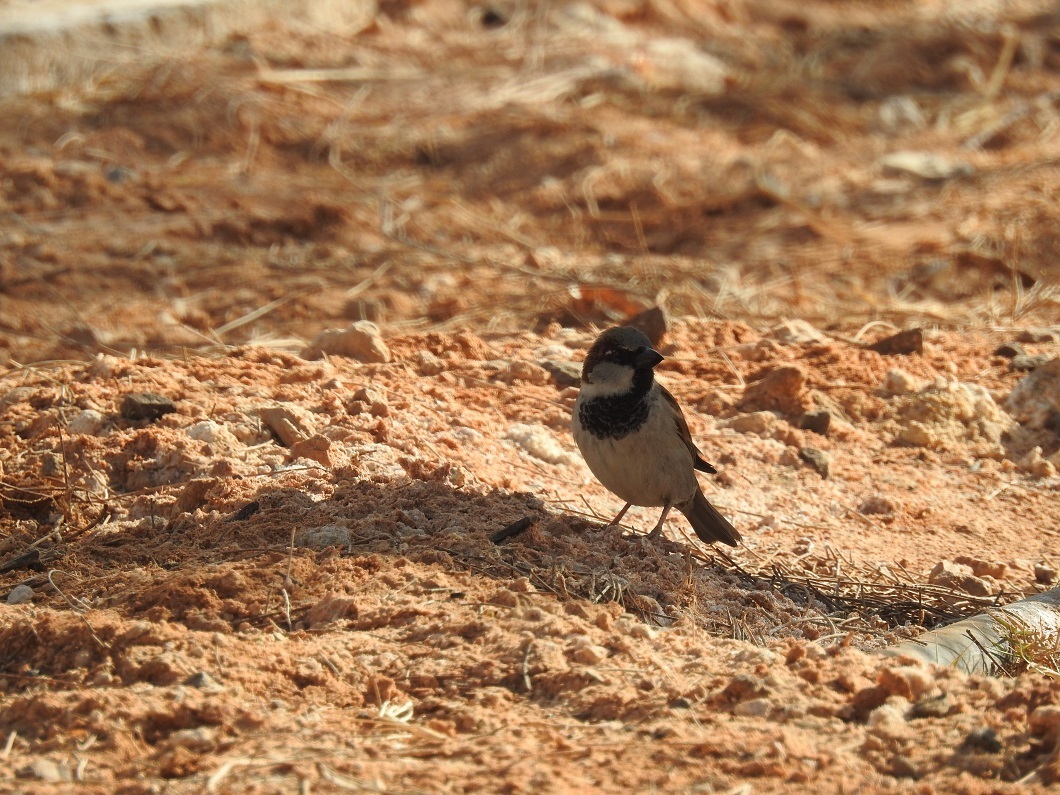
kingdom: Animalia
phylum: Chordata
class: Aves
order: Passeriformes
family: Passeridae
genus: Passer
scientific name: Passer domesticus
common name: House sparrow
